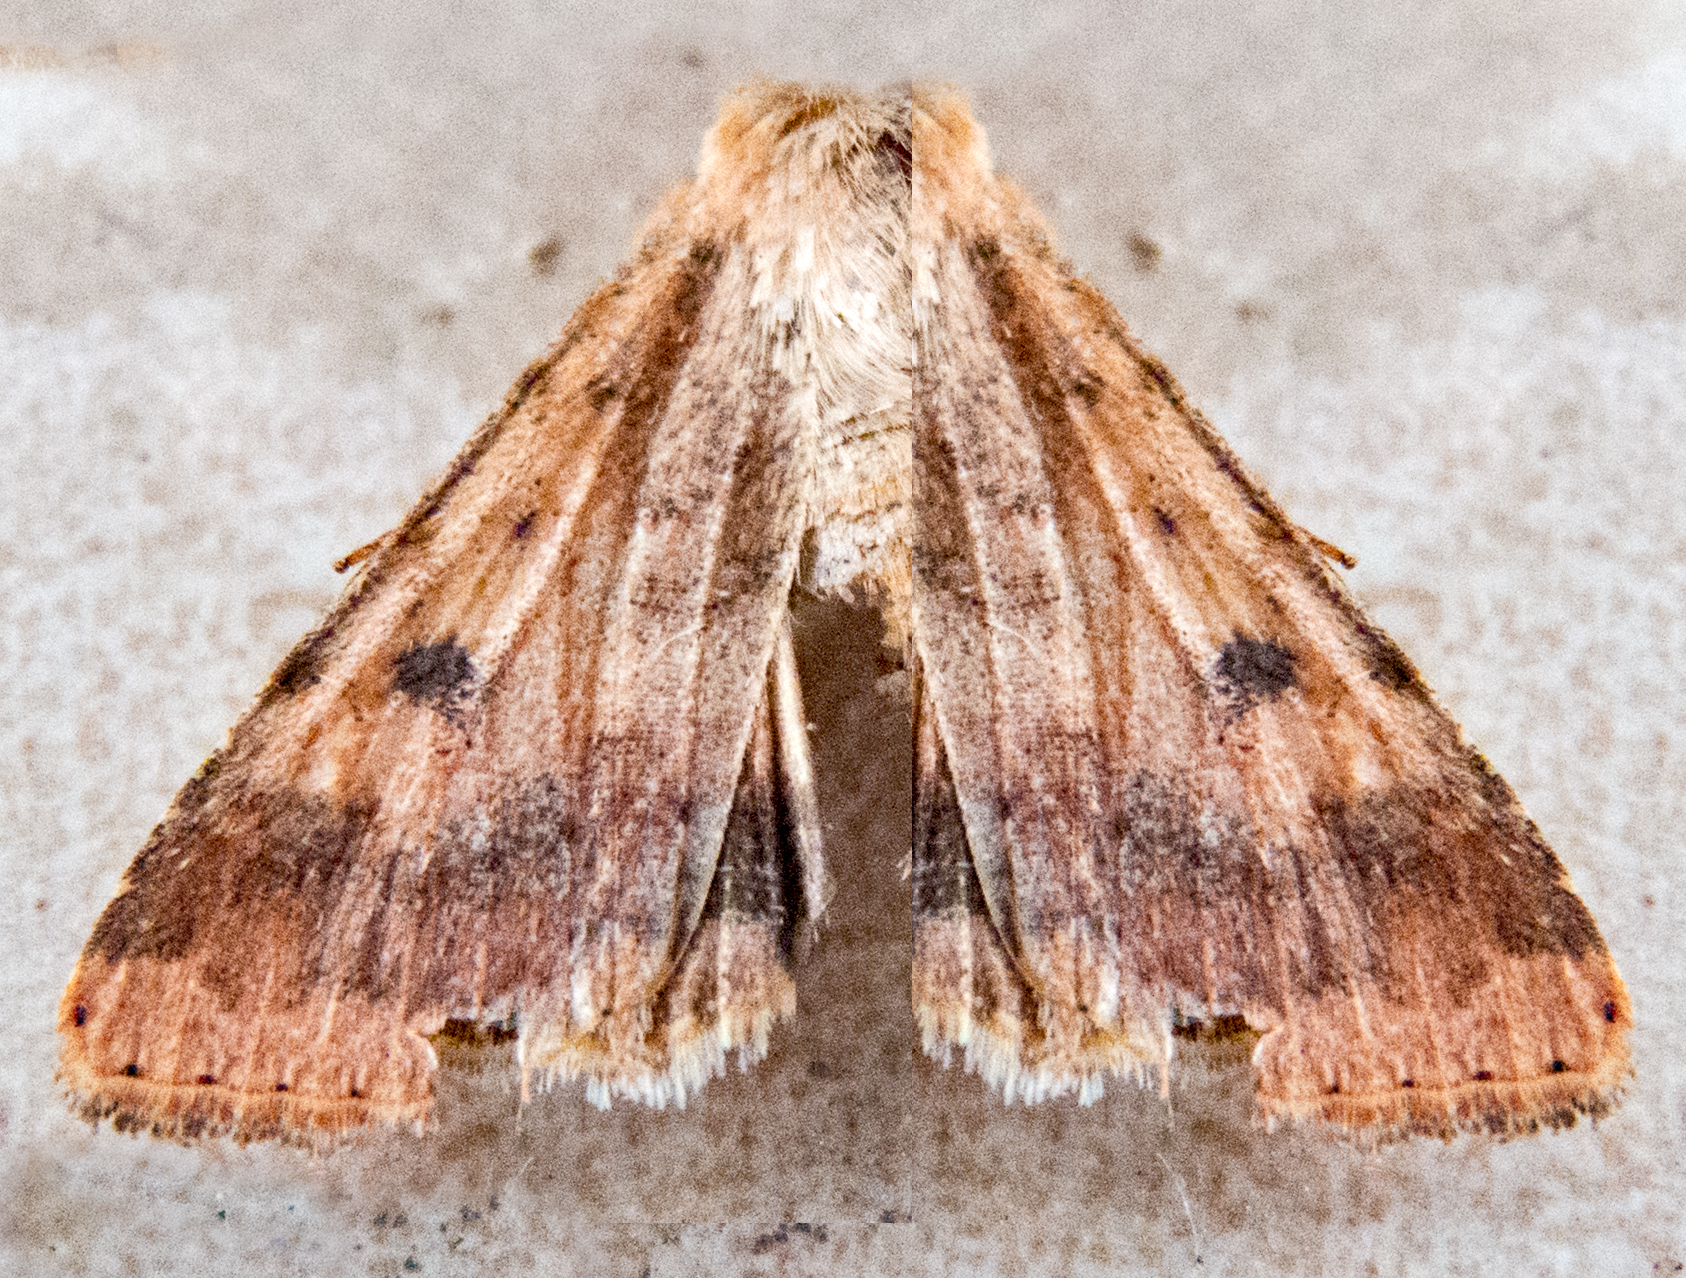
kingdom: Animalia
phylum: Arthropoda
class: Insecta
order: Lepidoptera
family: Noctuidae
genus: Helicoverpa
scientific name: Helicoverpa armigera
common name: Cotton bollworm
